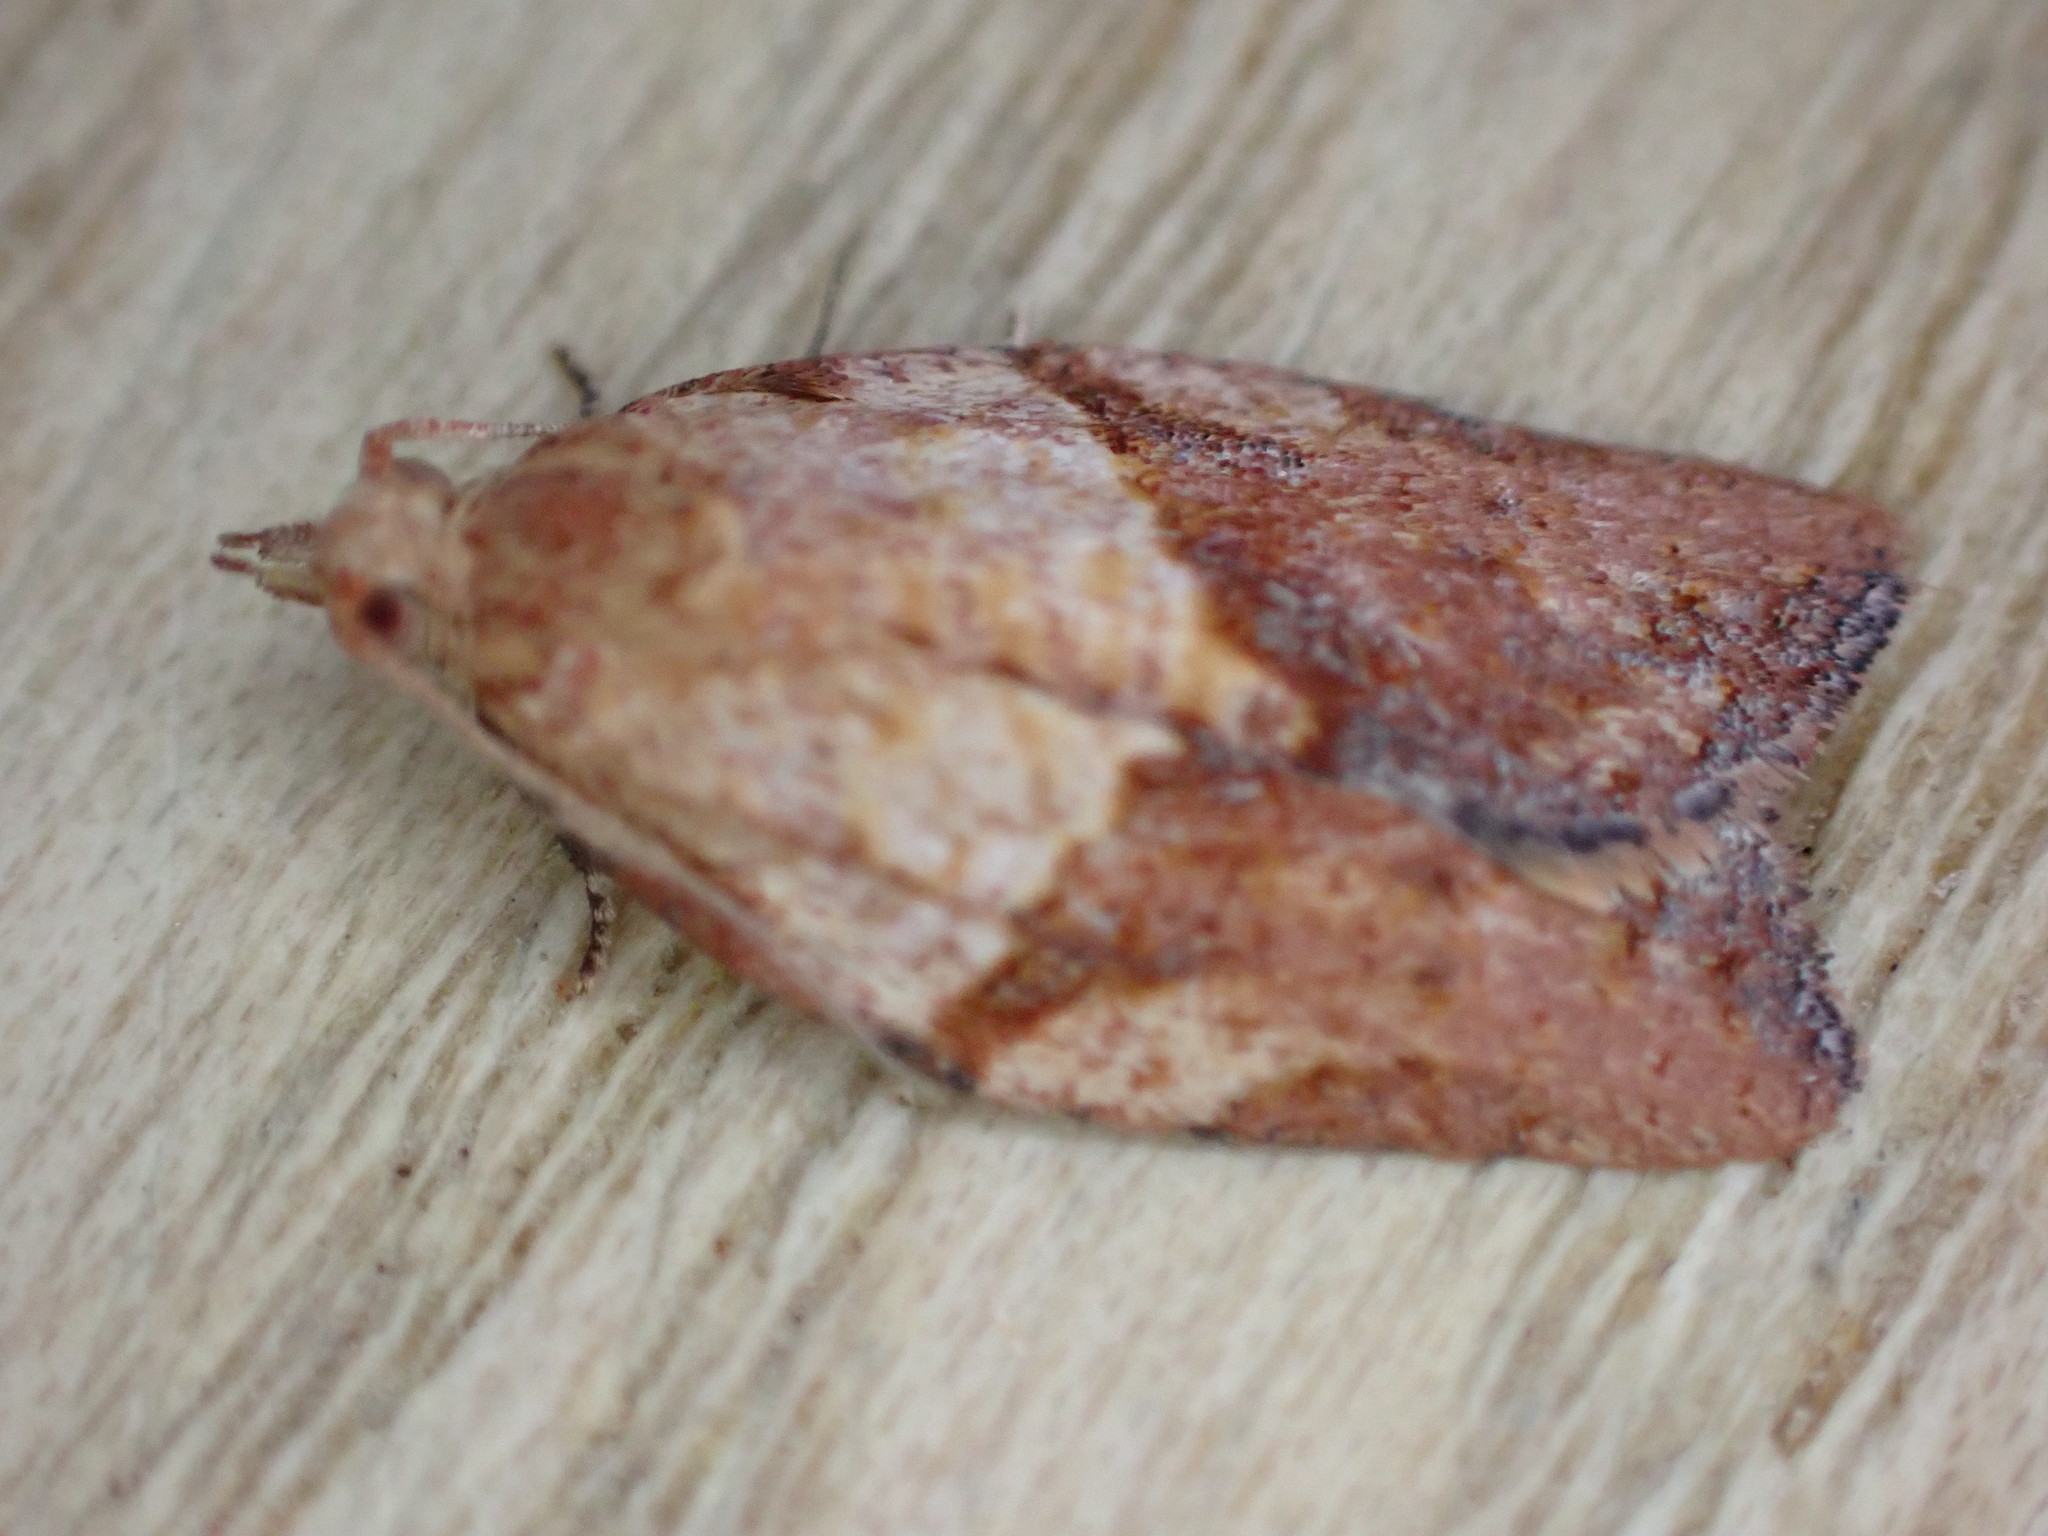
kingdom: Animalia
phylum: Arthropoda
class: Insecta
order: Lepidoptera
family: Tortricidae
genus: Epiphyas
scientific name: Epiphyas postvittana
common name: Light brown apple moth
